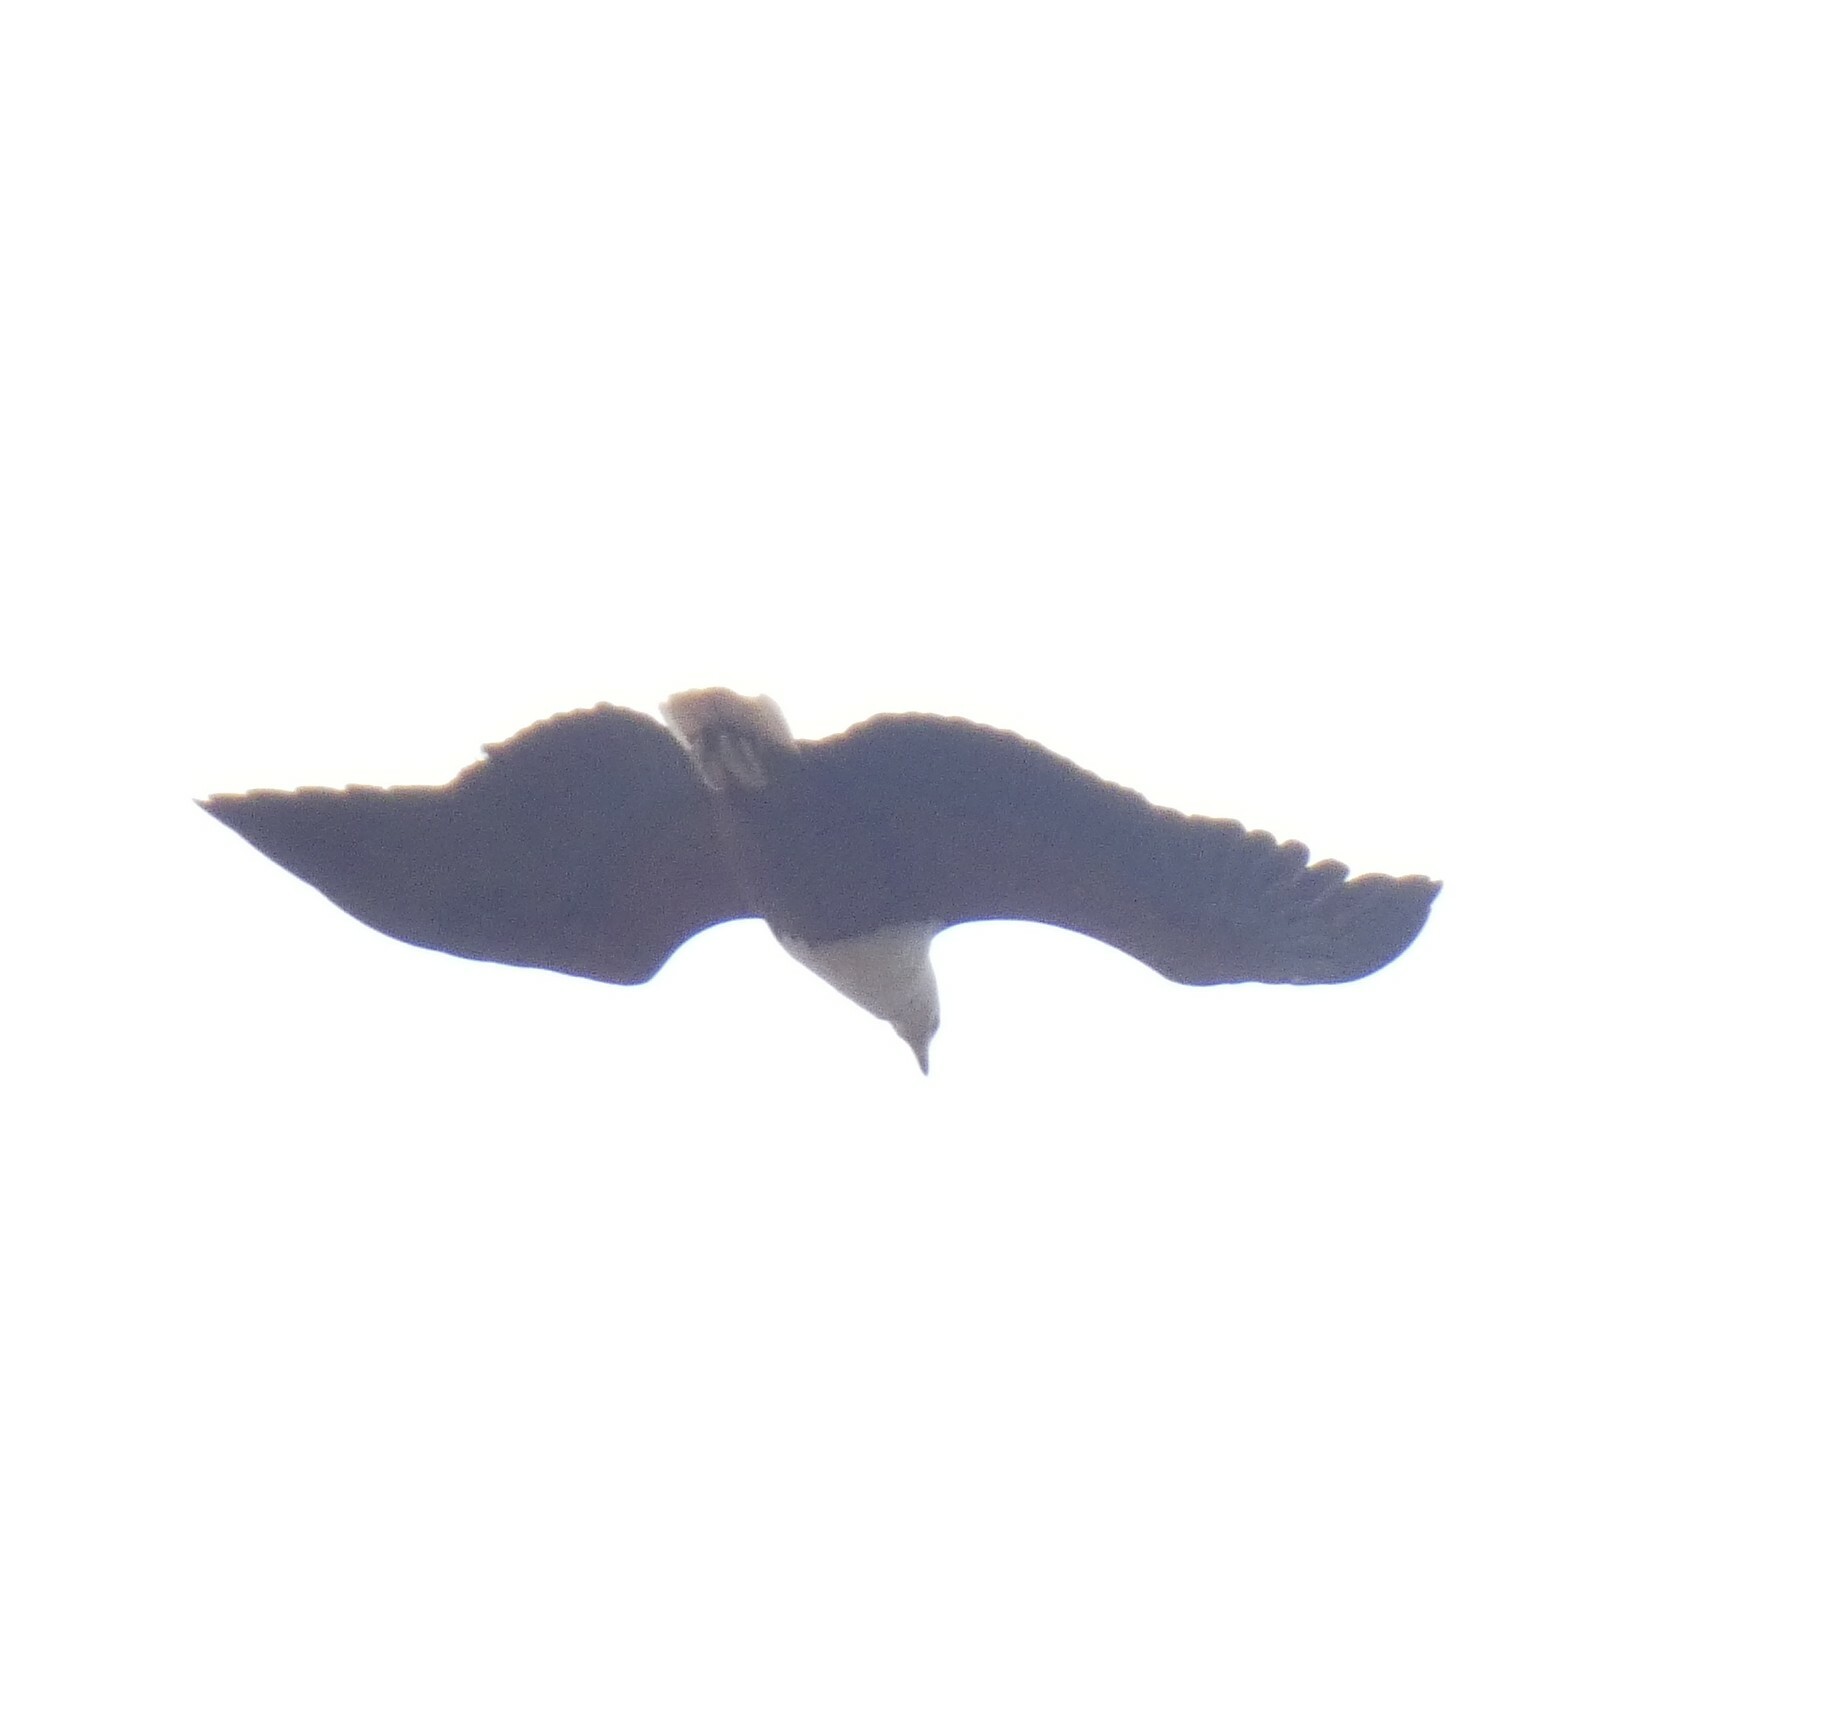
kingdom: Animalia
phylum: Chordata
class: Aves
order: Accipitriformes
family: Accipitridae
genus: Haliaeetus
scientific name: Haliaeetus vocifer
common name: African fish eagle
